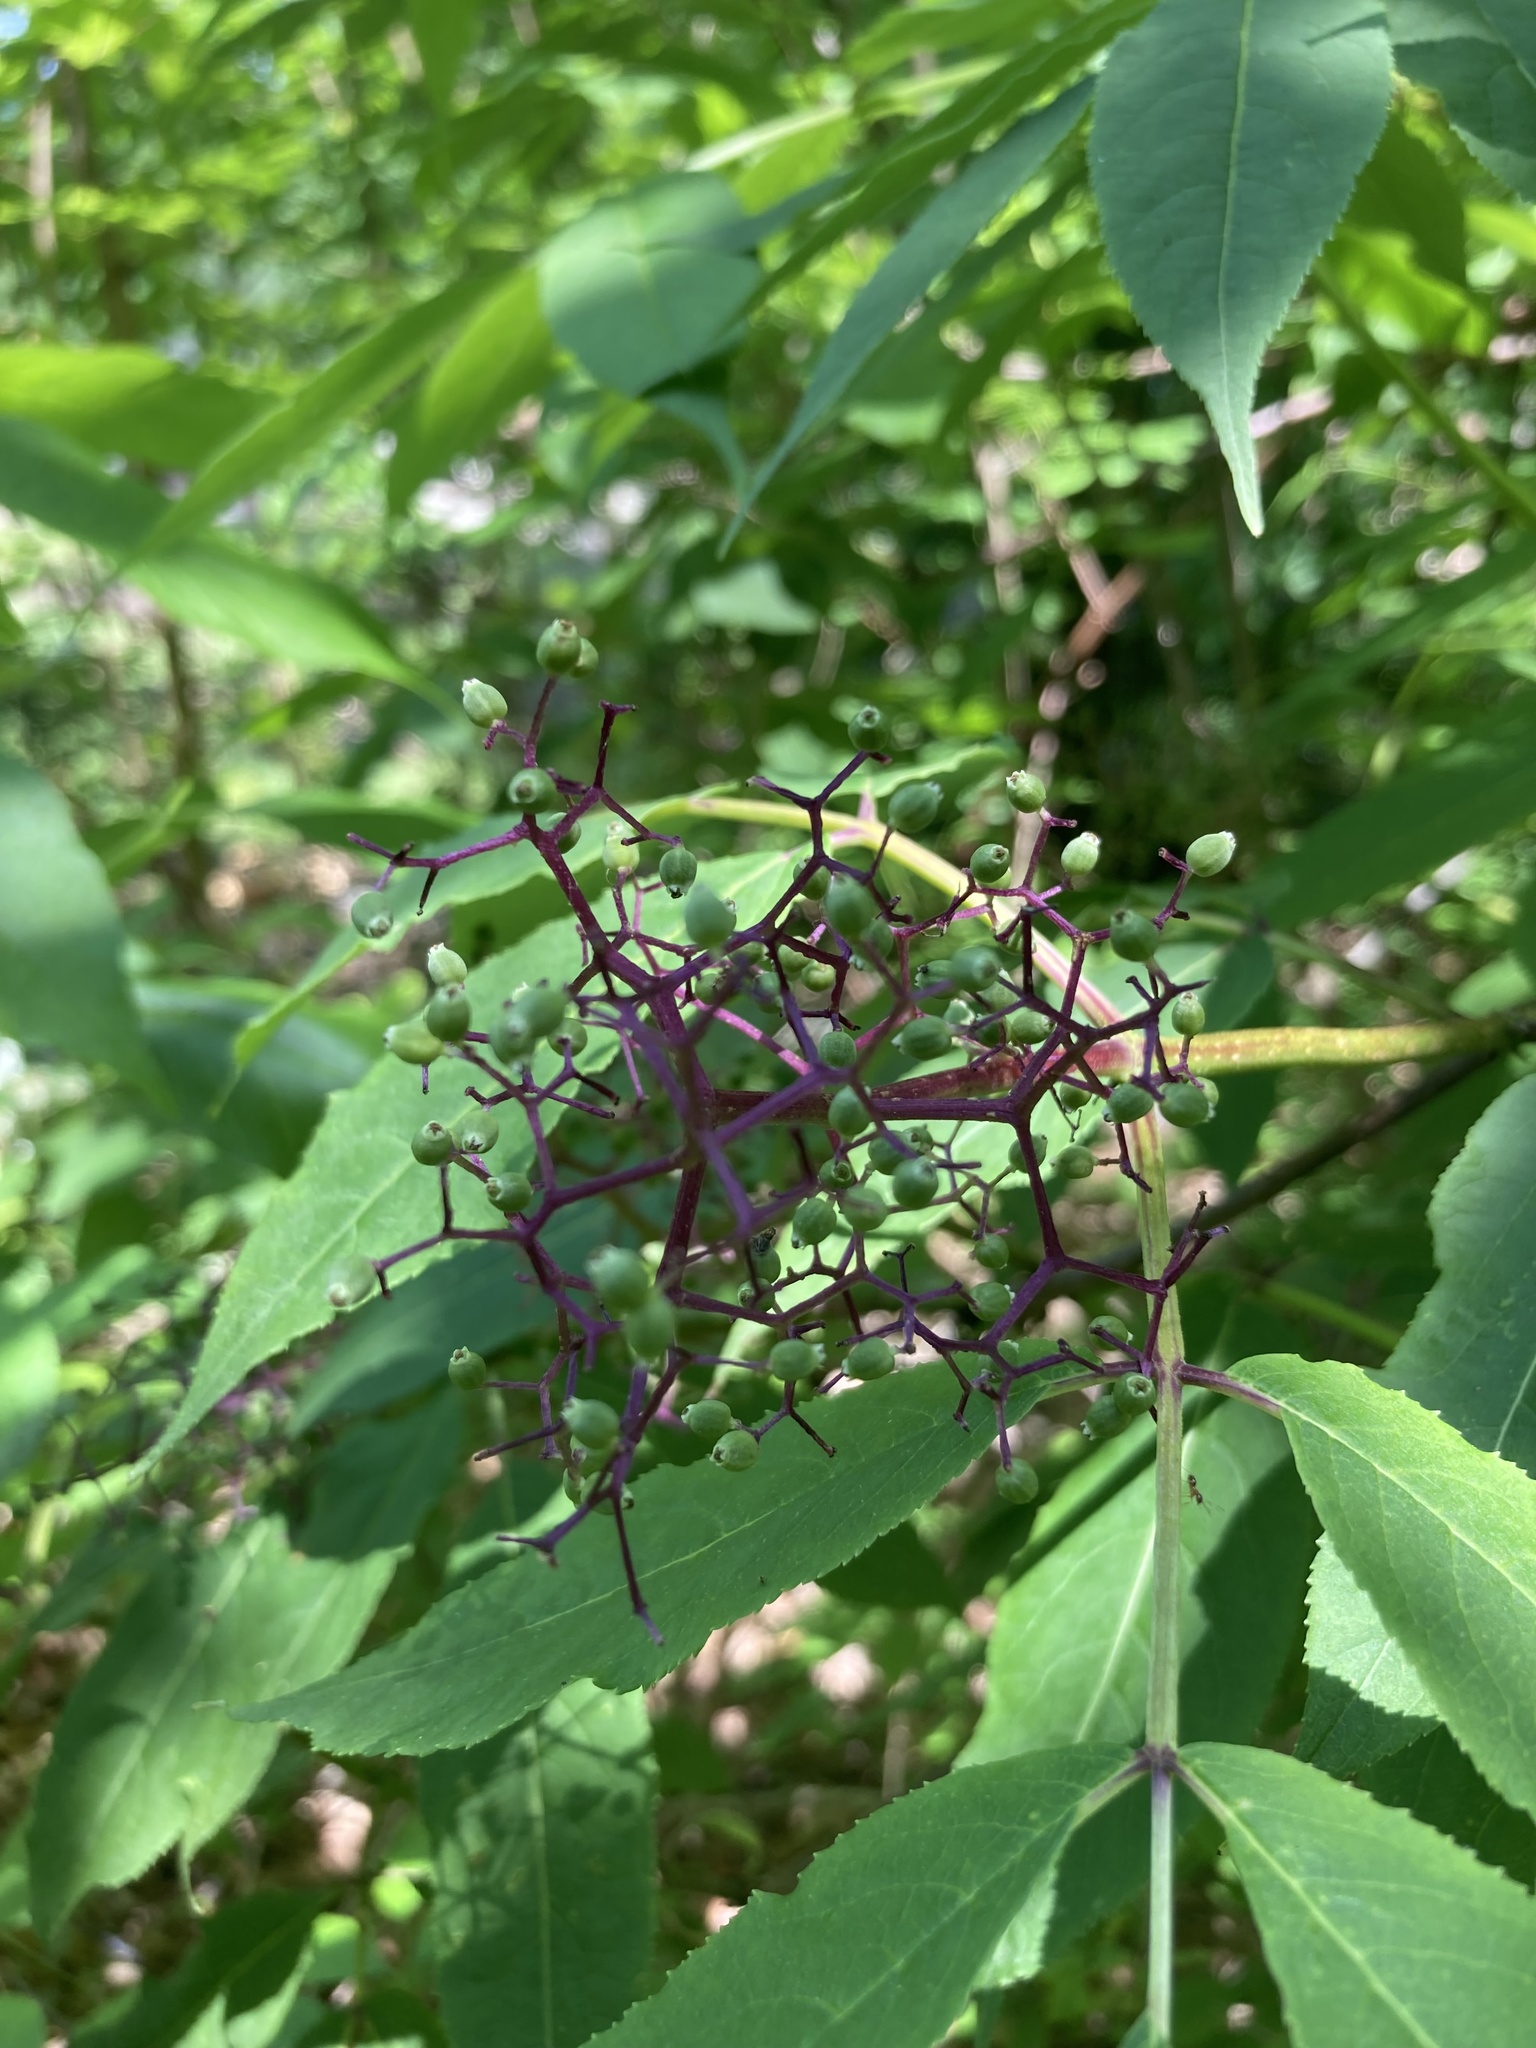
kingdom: Plantae
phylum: Tracheophyta
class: Magnoliopsida
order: Dipsacales
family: Viburnaceae
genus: Sambucus
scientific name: Sambucus racemosa
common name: Red-berried elder
